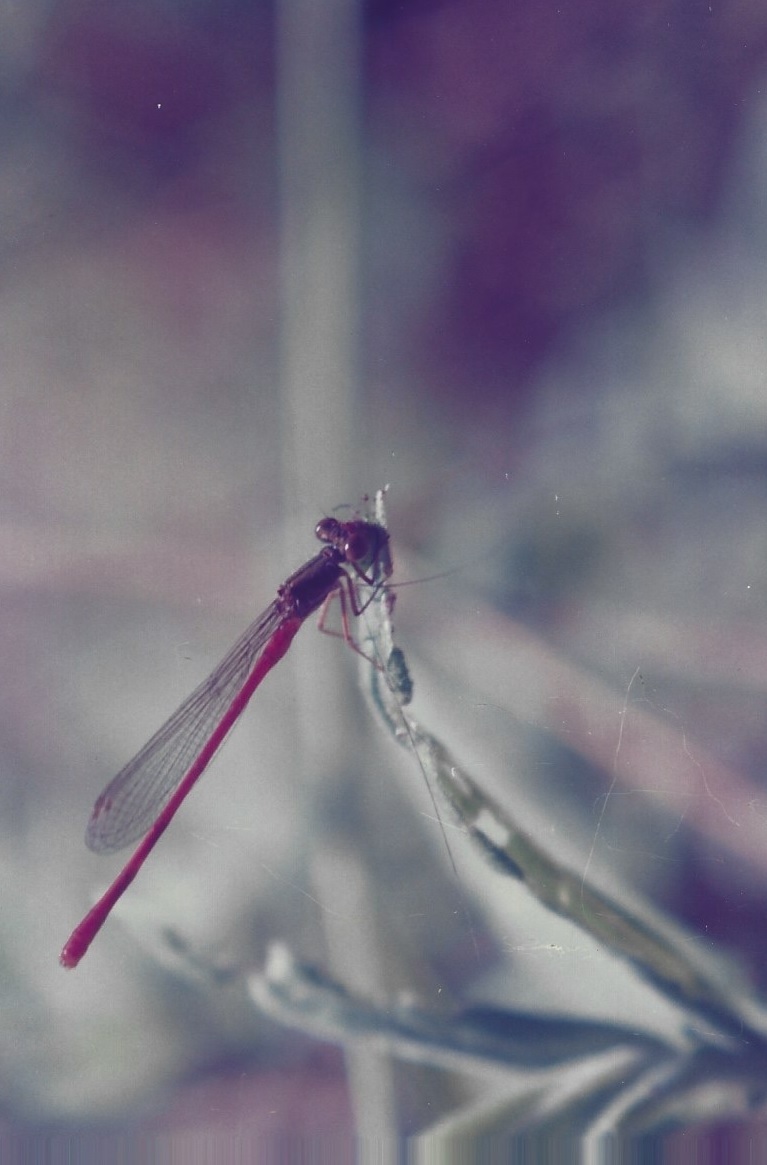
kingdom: Animalia
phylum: Arthropoda
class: Insecta
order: Odonata
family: Coenagrionidae
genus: Ceriagrion
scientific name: Ceriagrion tenellum
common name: Small red damselfly
